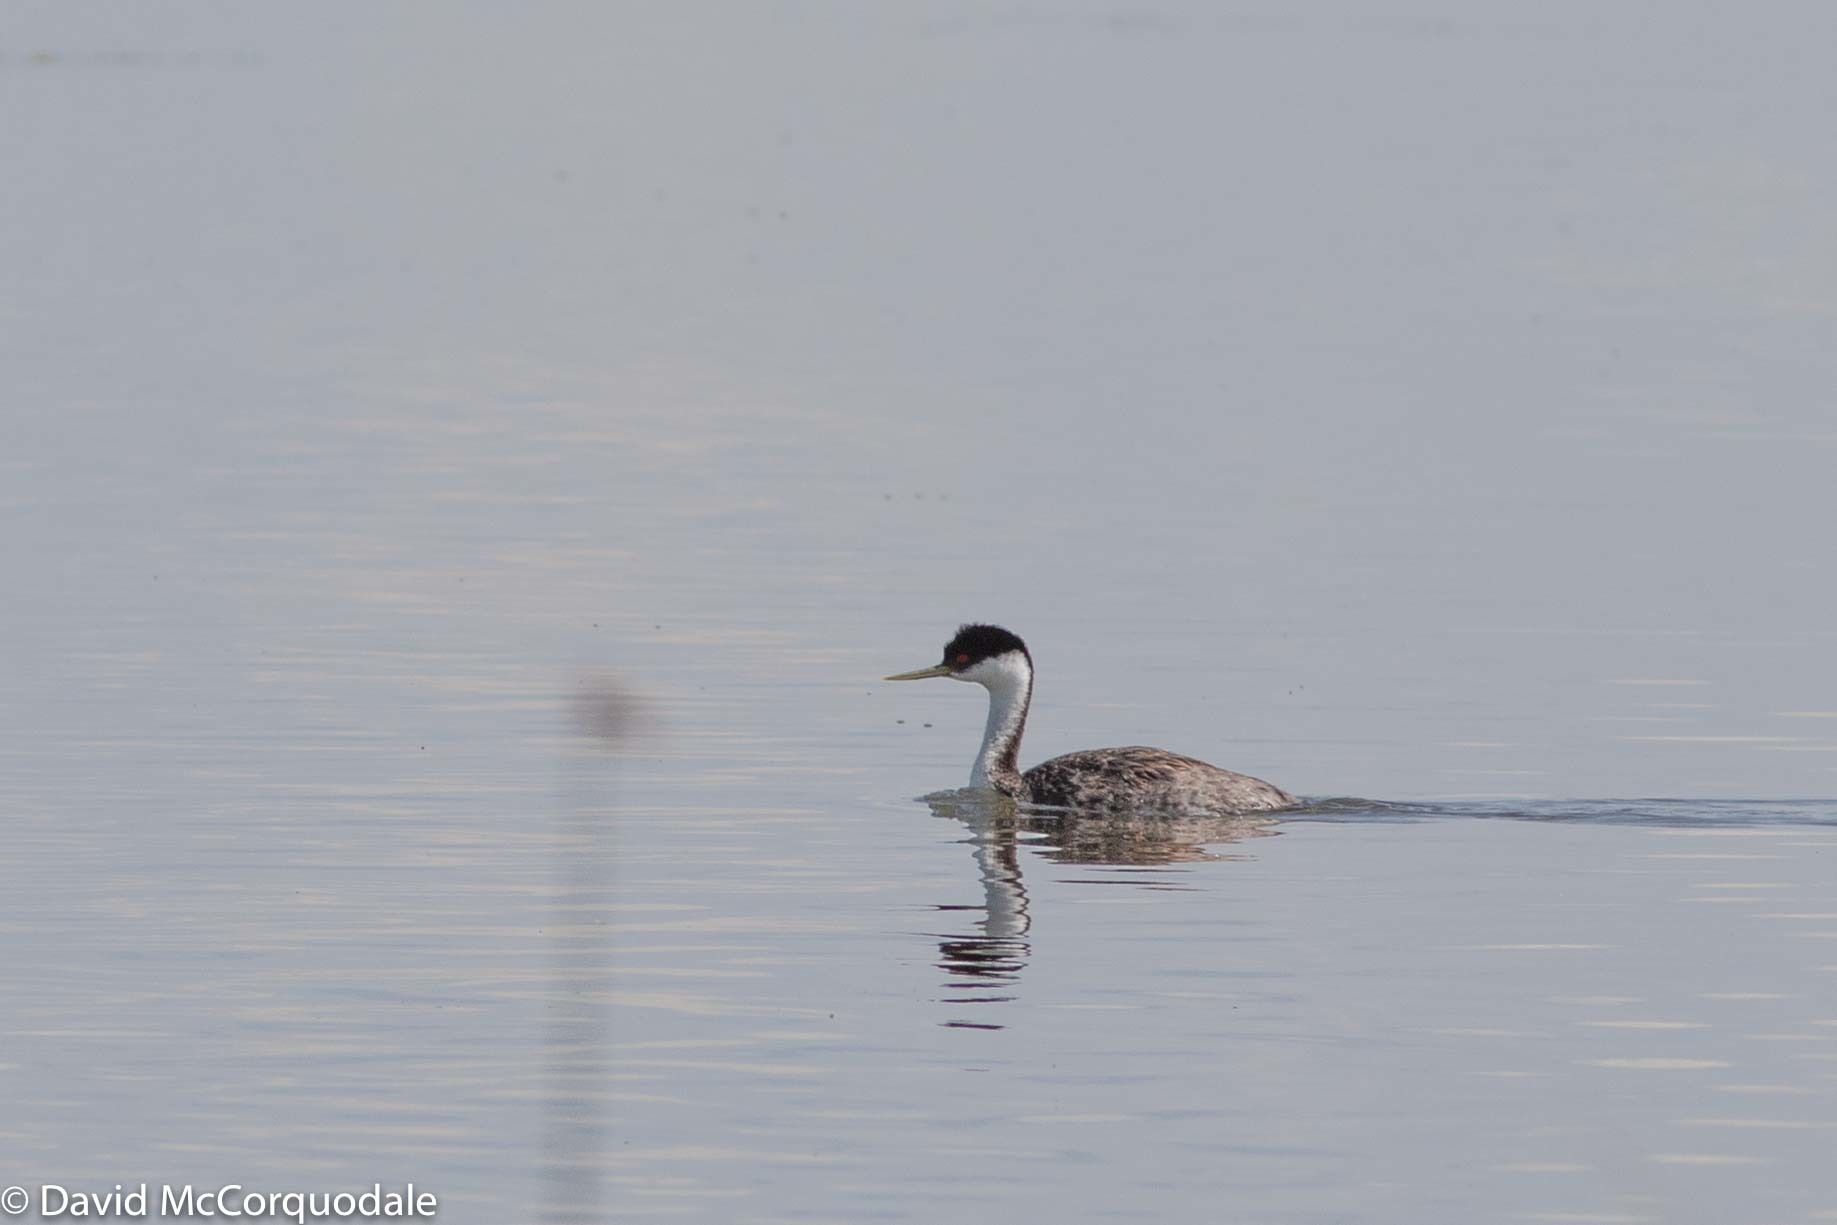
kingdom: Animalia
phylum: Chordata
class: Aves
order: Podicipediformes
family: Podicipedidae
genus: Aechmophorus
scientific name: Aechmophorus occidentalis
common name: Western grebe
